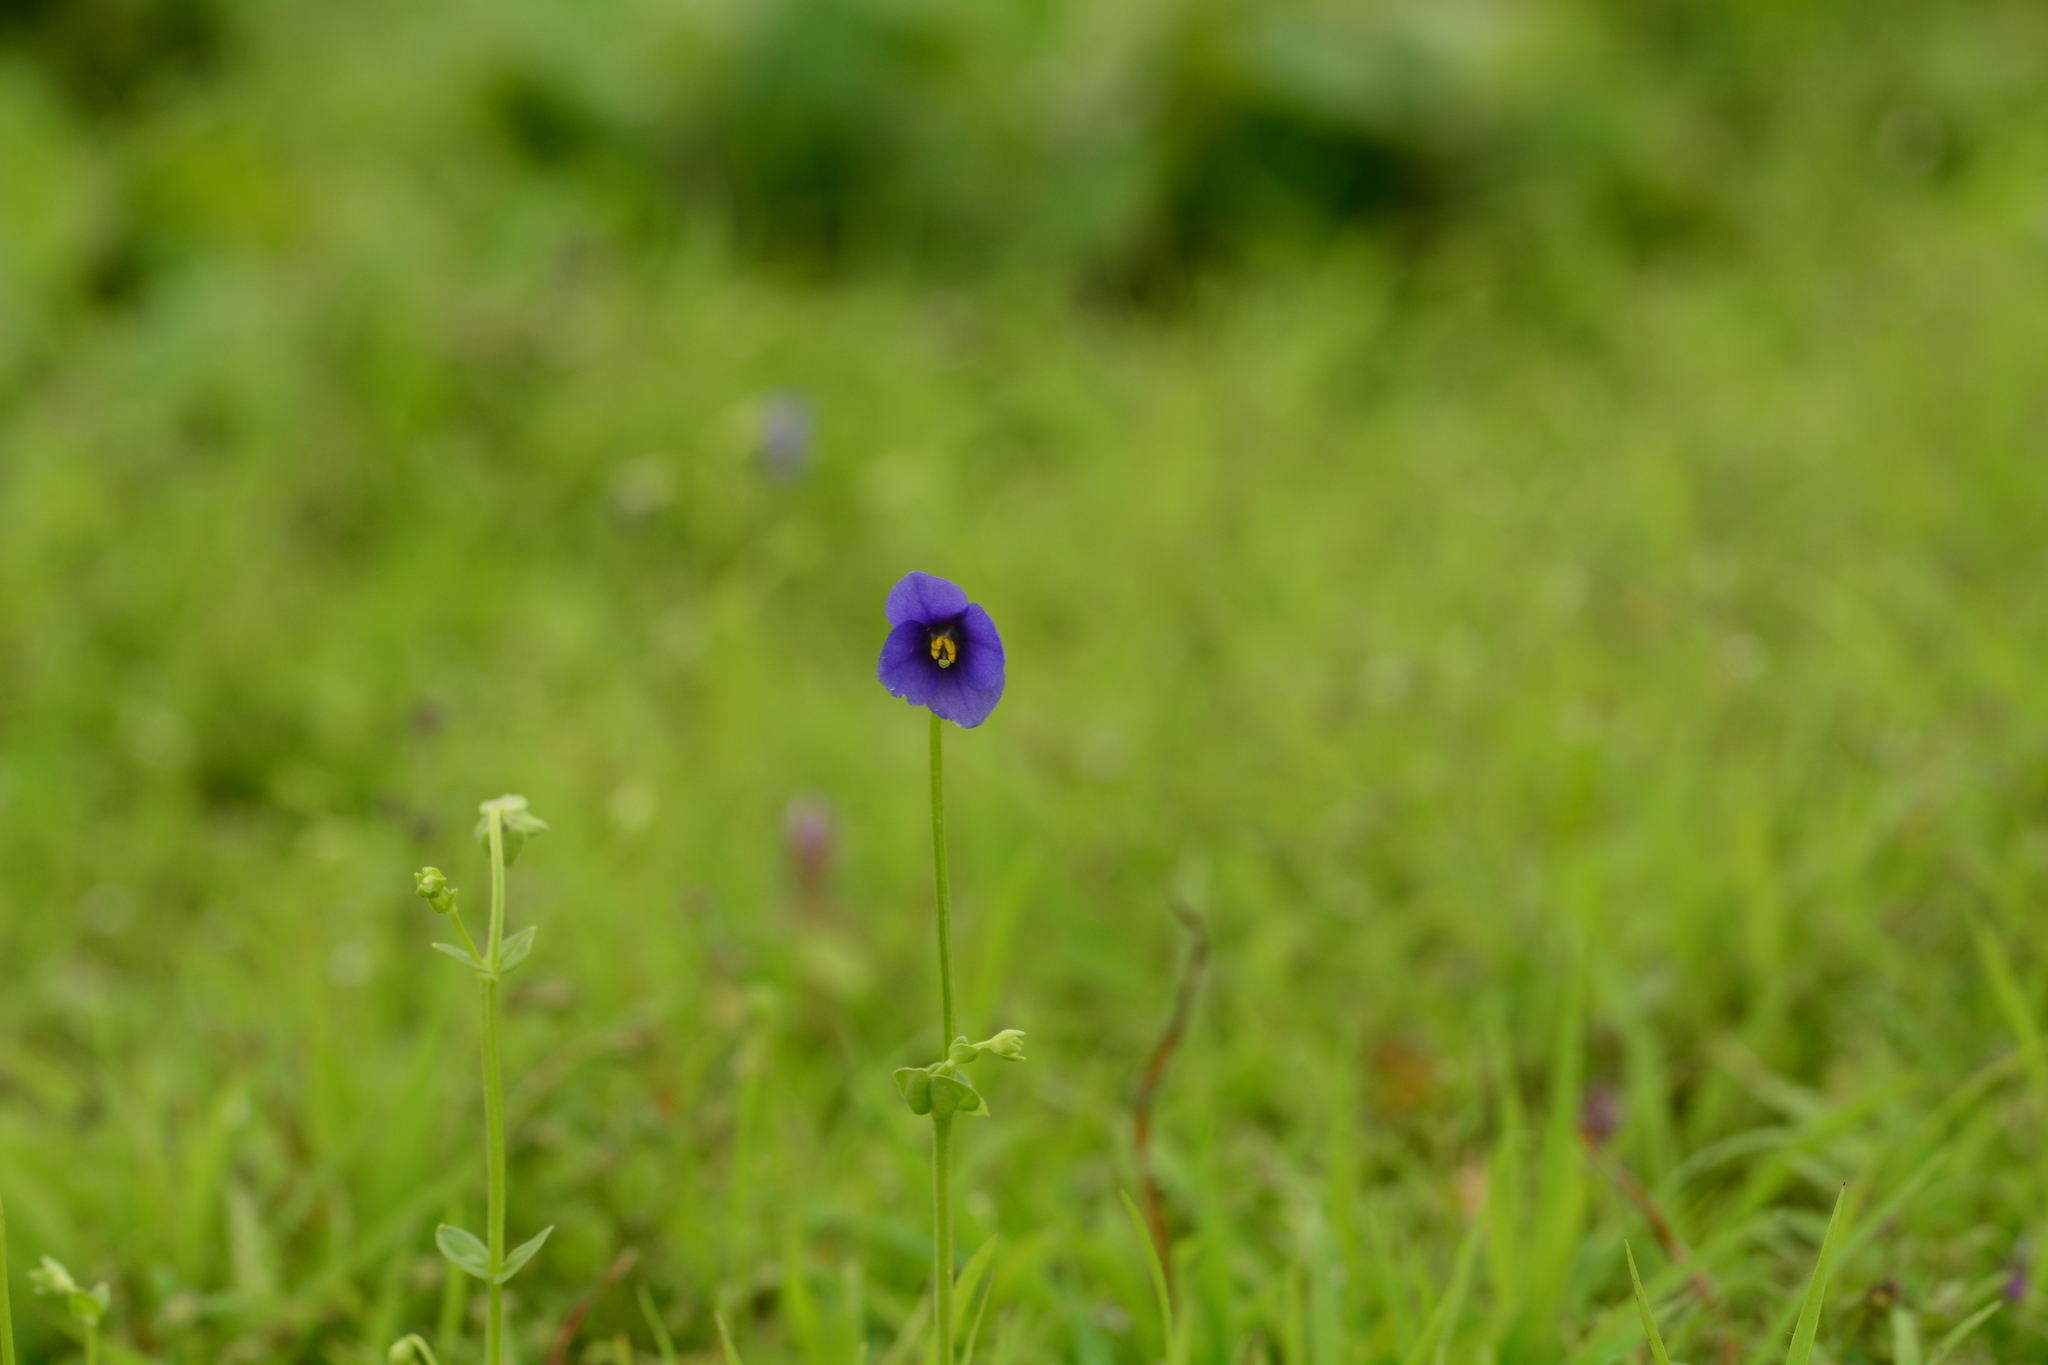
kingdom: Plantae
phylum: Tracheophyta
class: Magnoliopsida
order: Gentianales
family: Gentianaceae
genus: Exacum
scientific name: Exacum pumilum
